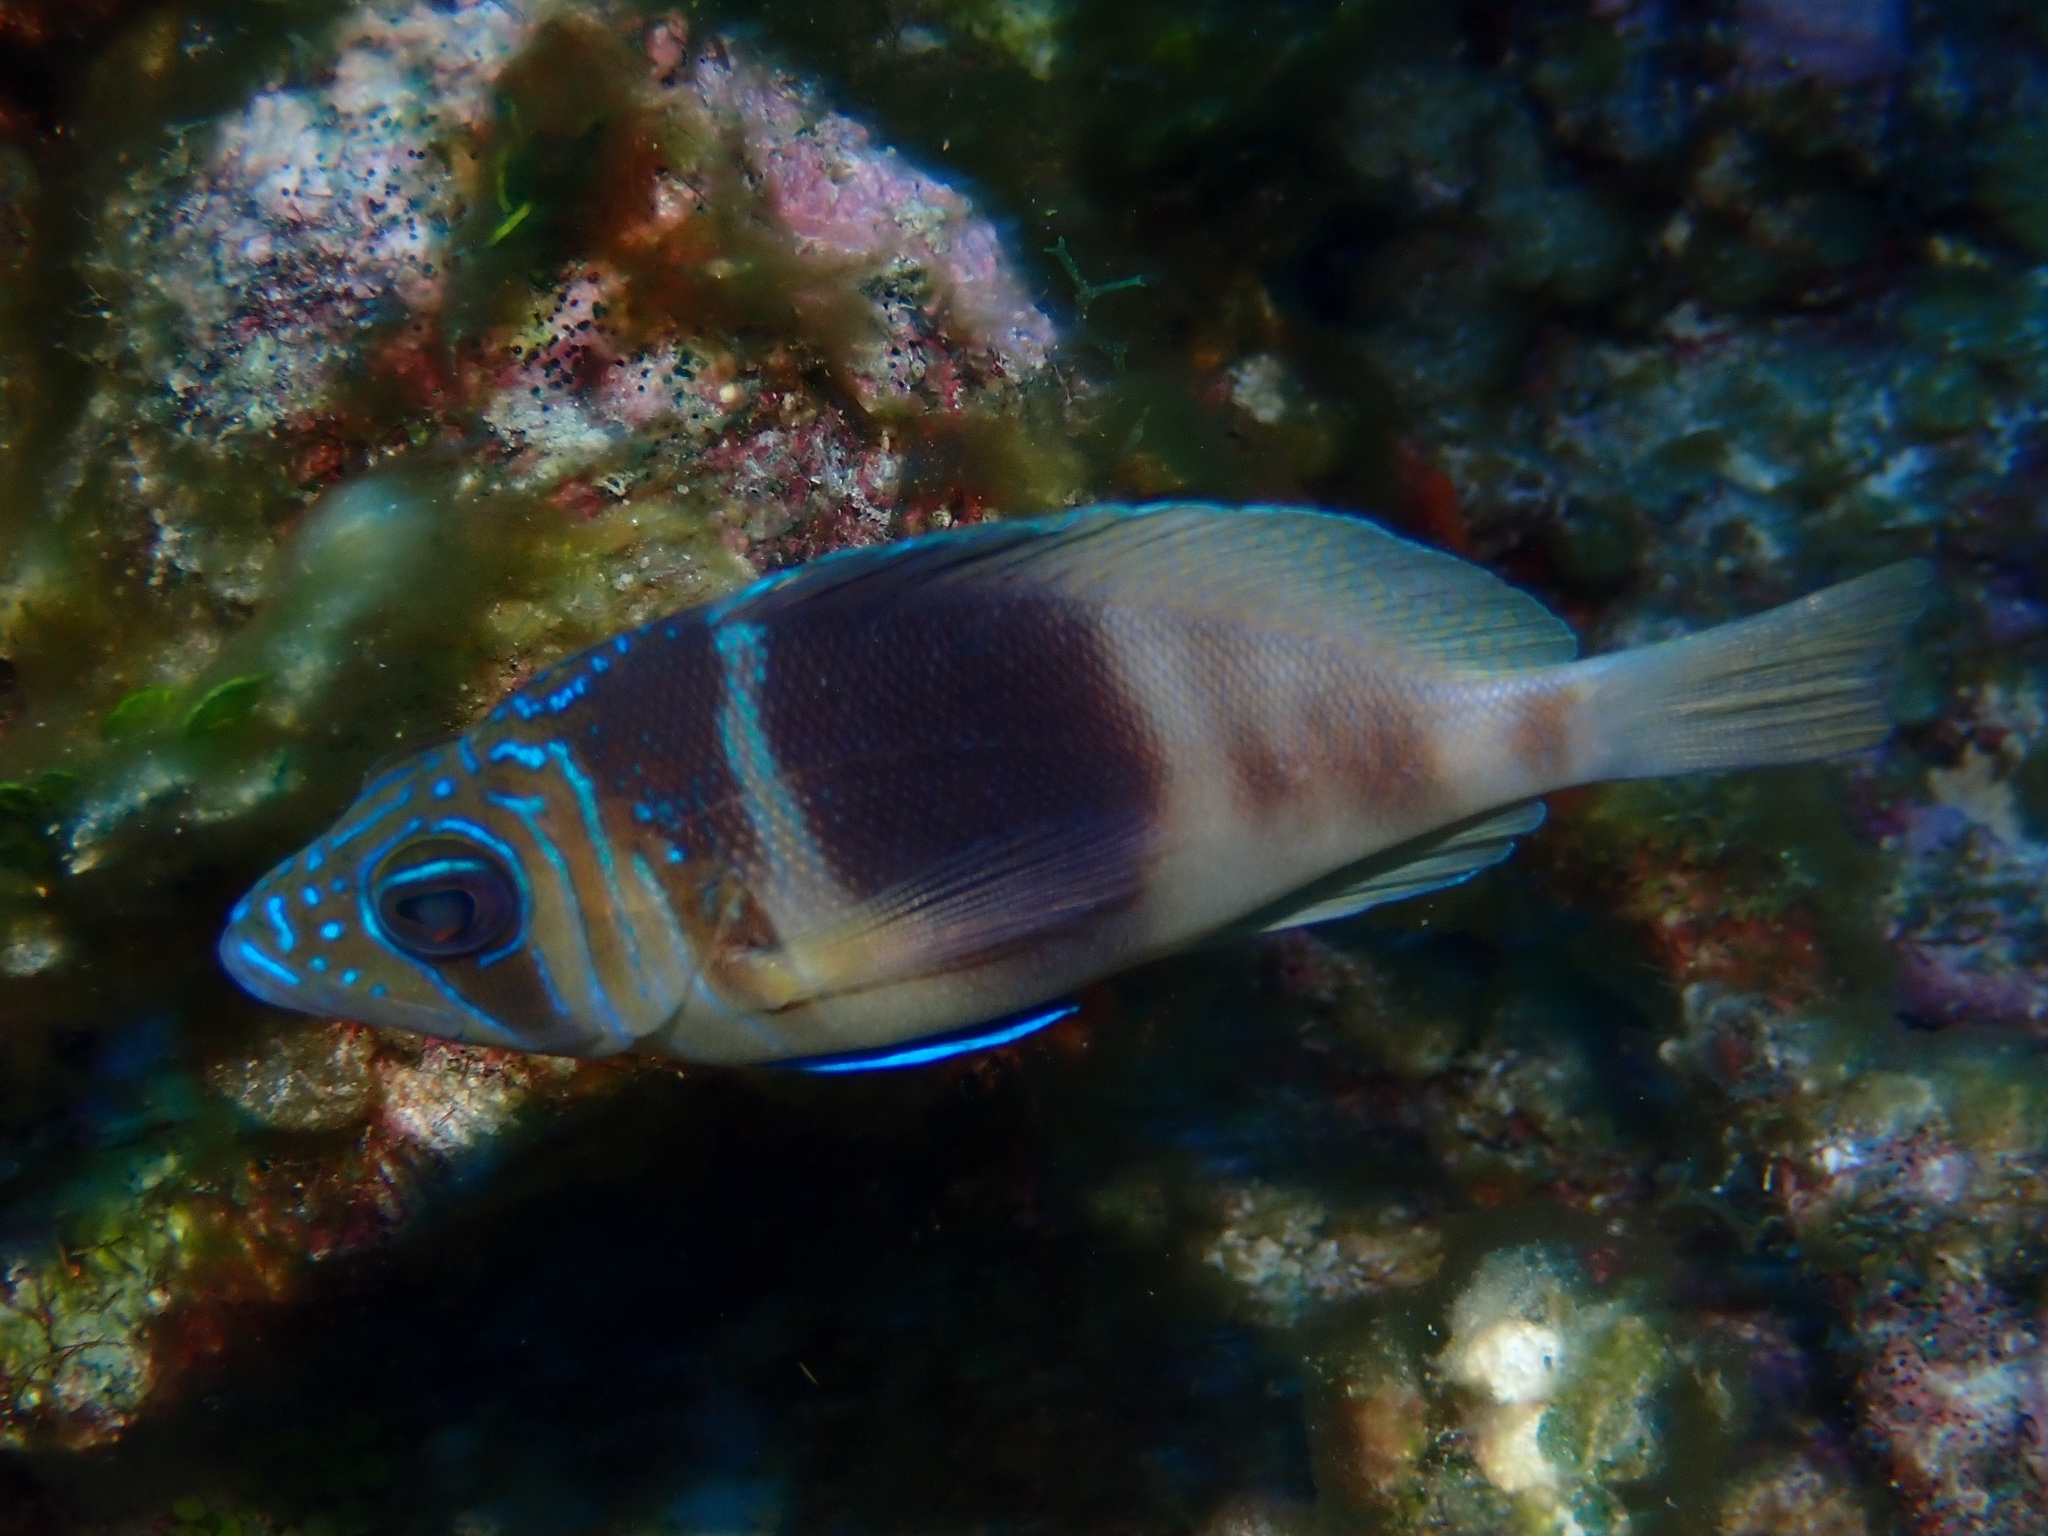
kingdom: Animalia
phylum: Chordata
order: Perciformes
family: Serranidae
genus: Hypoplectrus
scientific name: Hypoplectrus puella
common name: Barred hamlet
